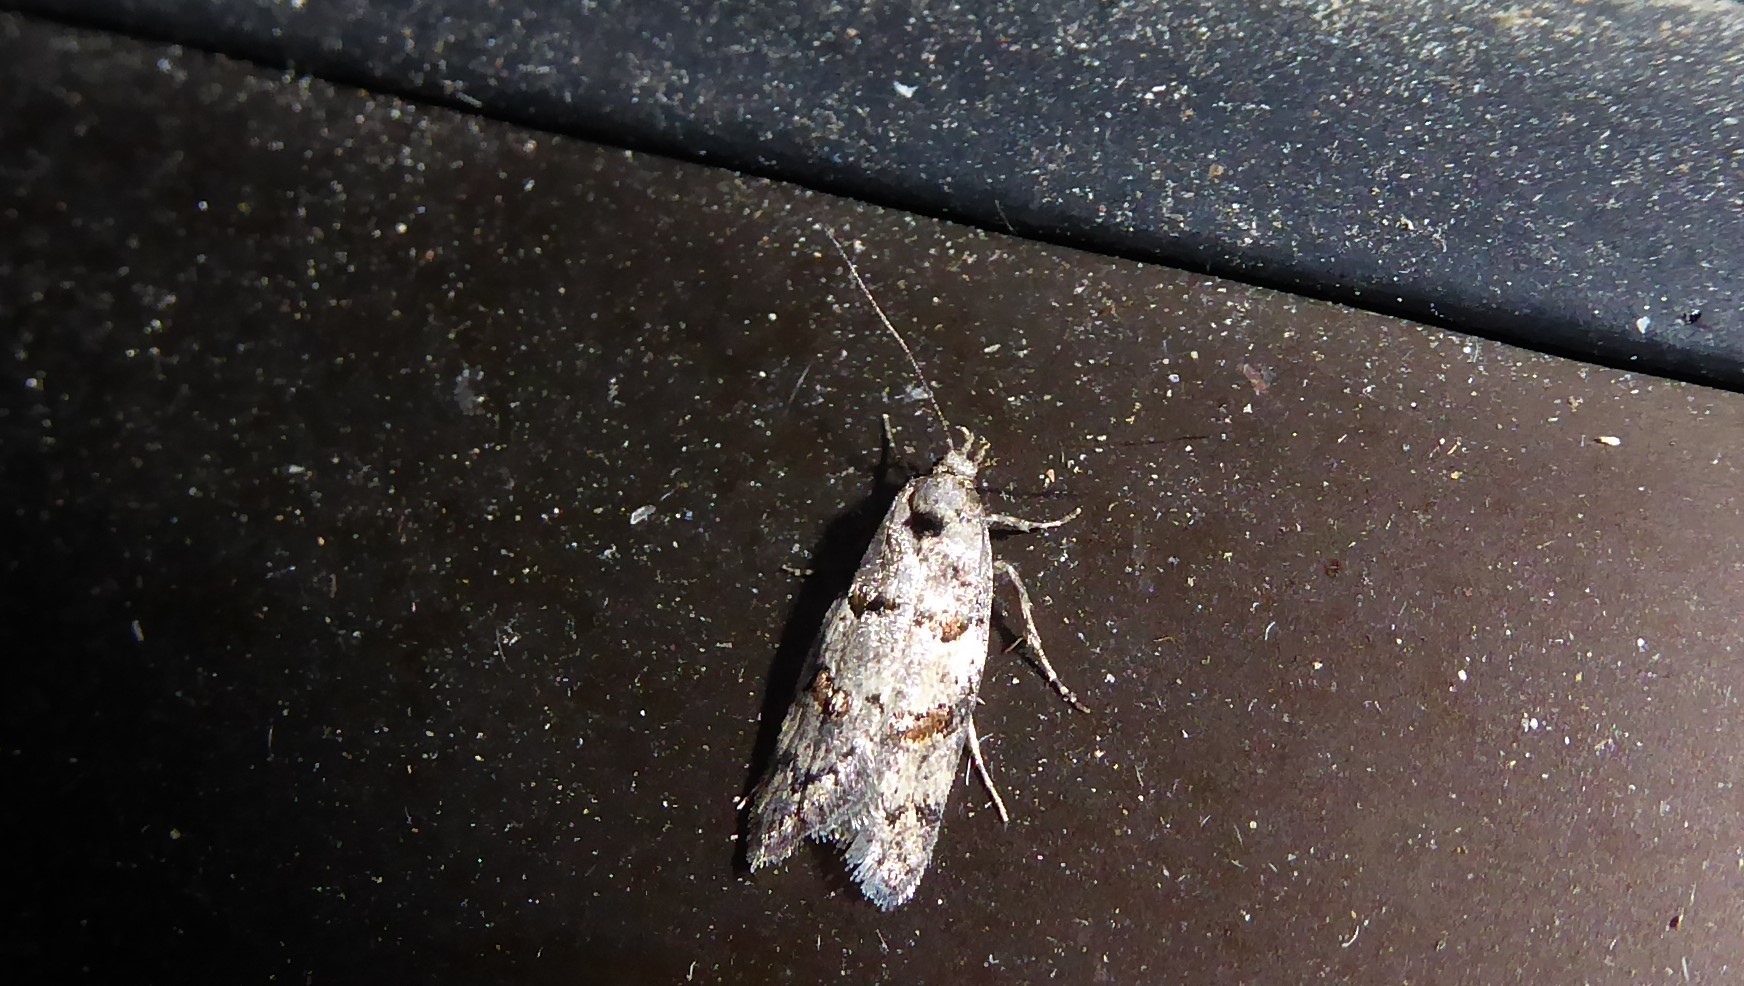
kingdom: Animalia
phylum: Arthropoda
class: Insecta
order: Lepidoptera
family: Oecophoridae
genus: Trachypepla
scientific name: Trachypepla contritella
